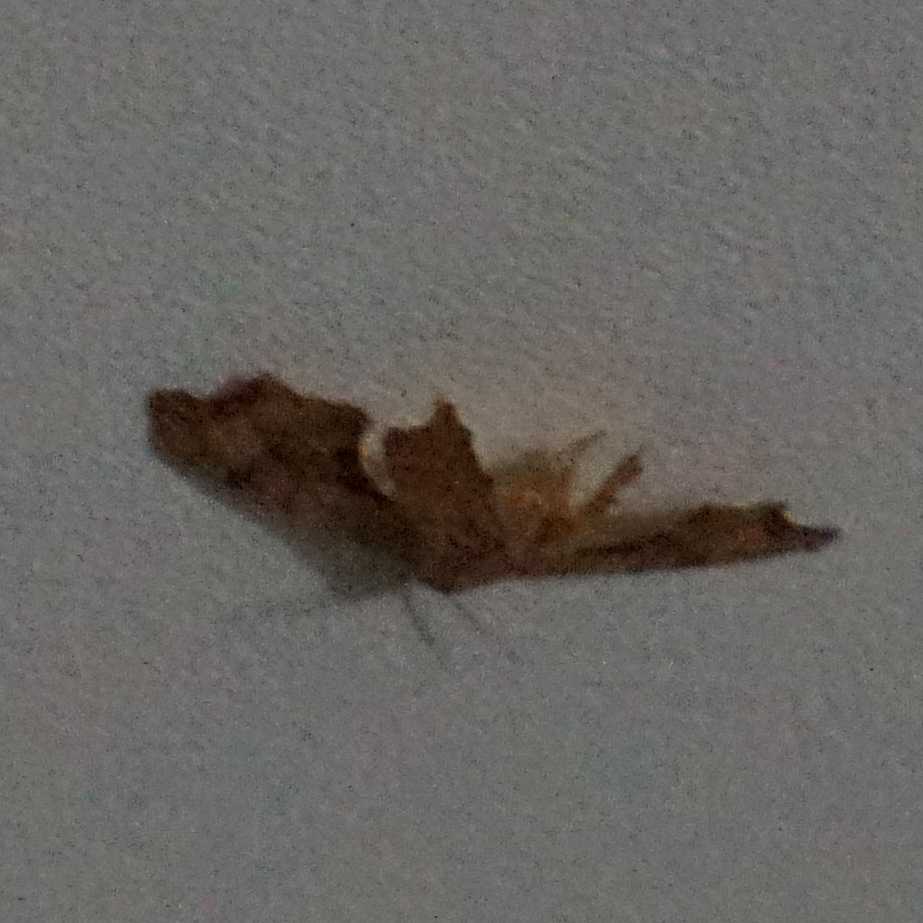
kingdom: Animalia
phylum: Arthropoda
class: Insecta
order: Lepidoptera
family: Uraniidae
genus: Epiplema
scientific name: Epiplema Calledapteryx dryopterata
